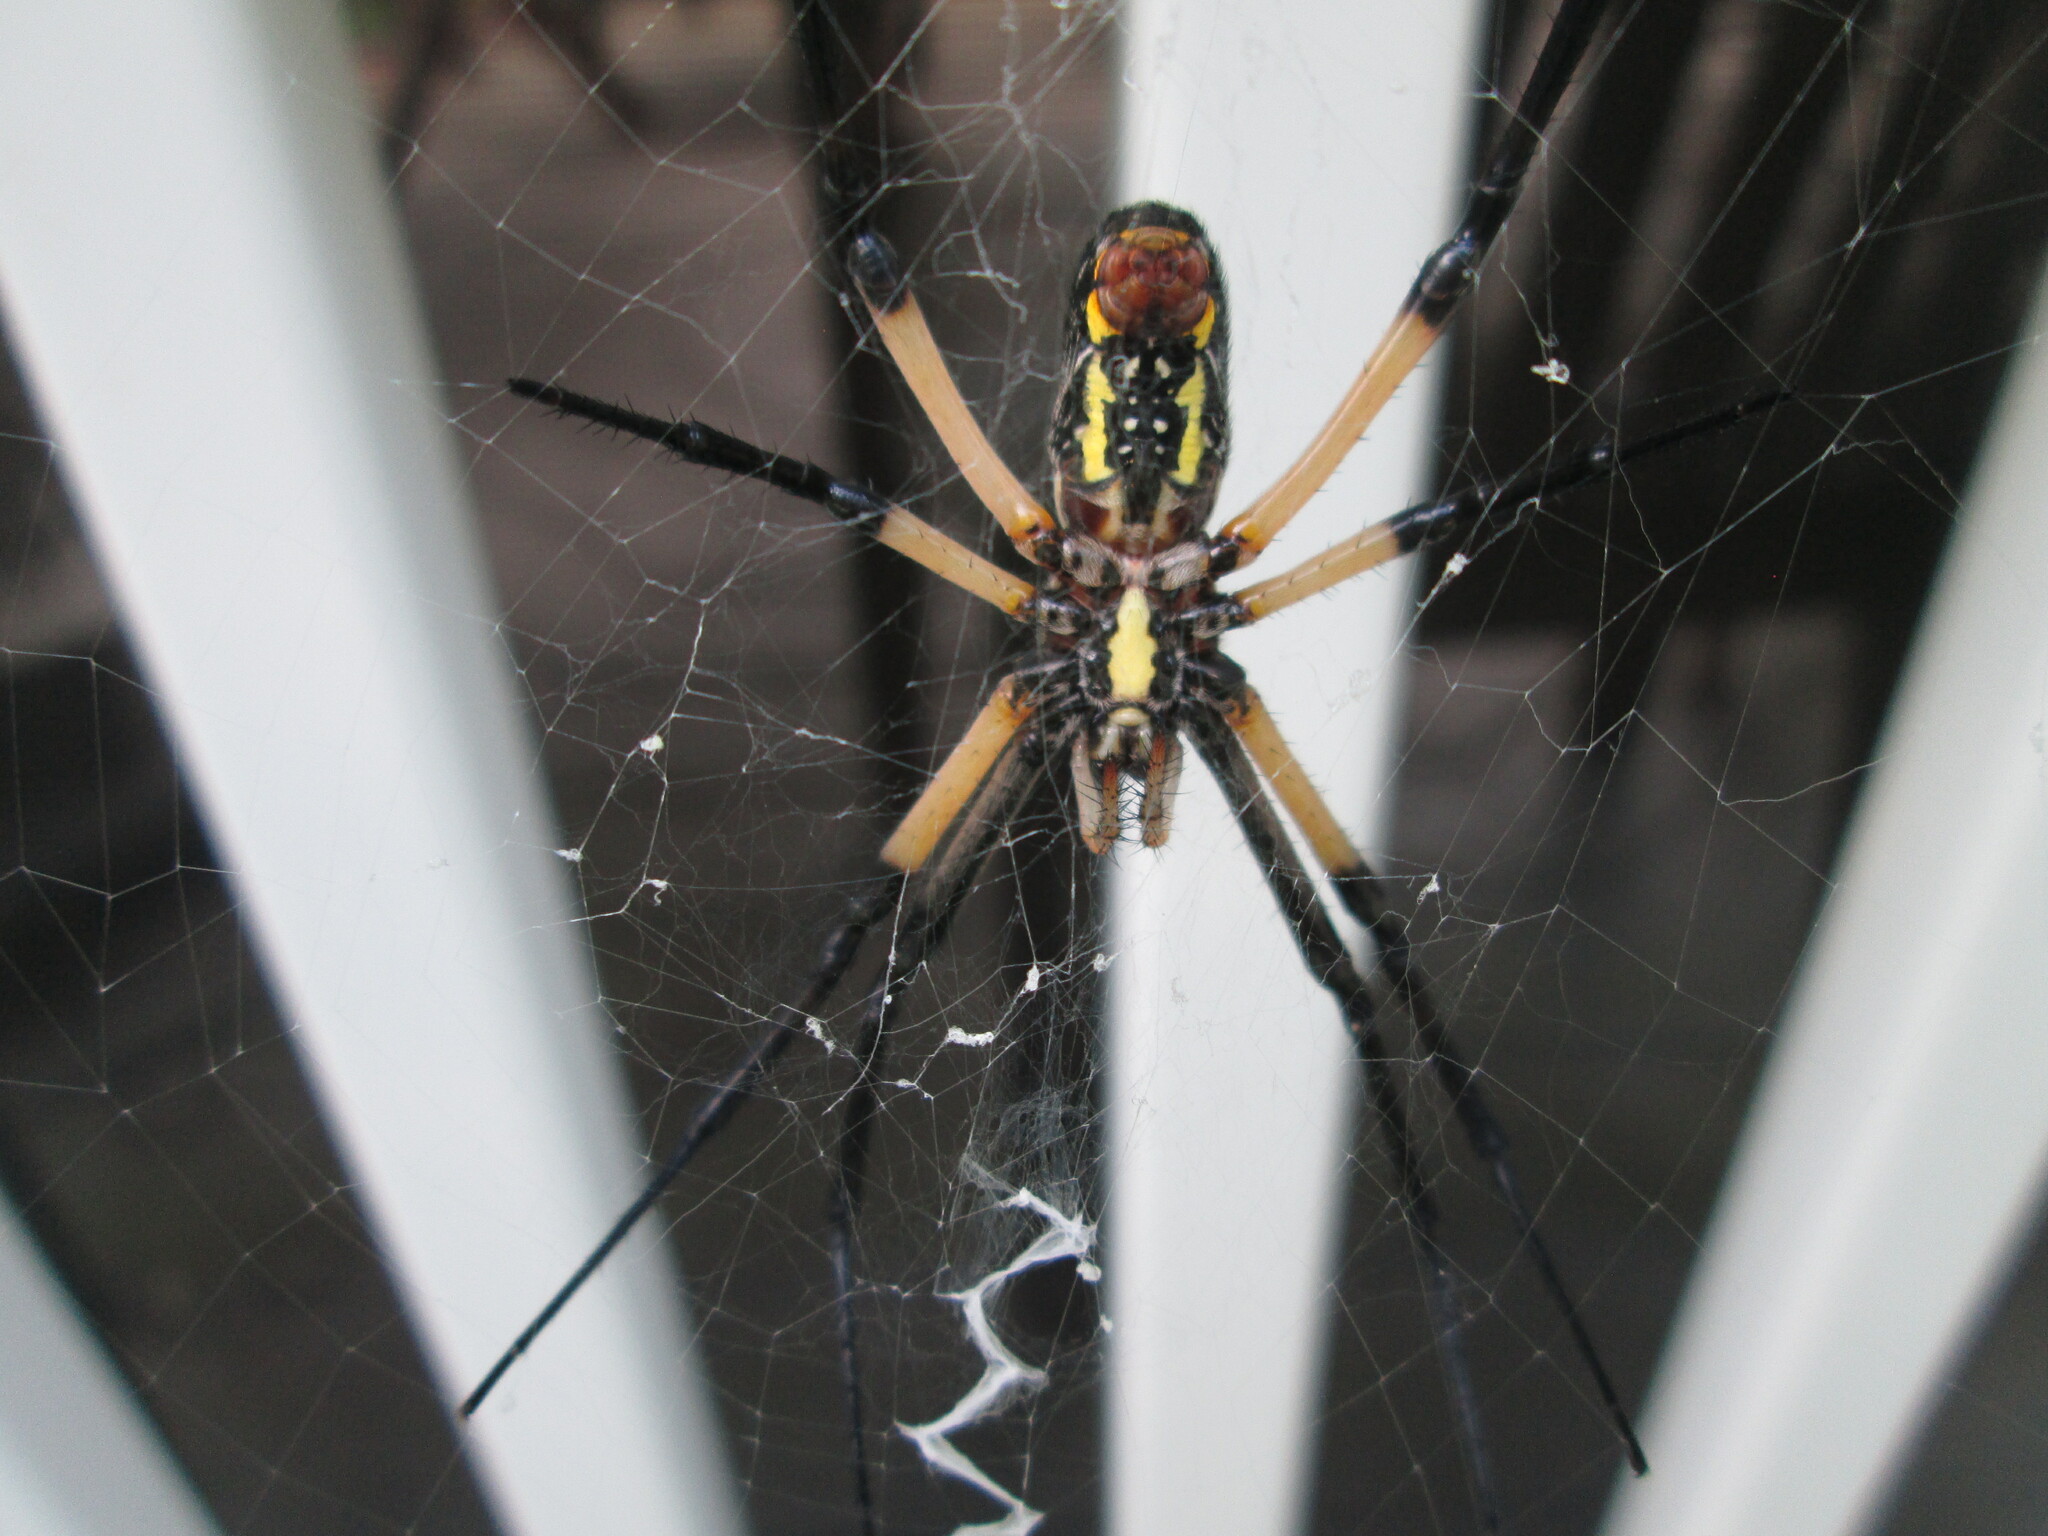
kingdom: Animalia
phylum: Arthropoda
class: Arachnida
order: Araneae
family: Araneidae
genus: Argiope
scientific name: Argiope aurantia
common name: Orb weavers
